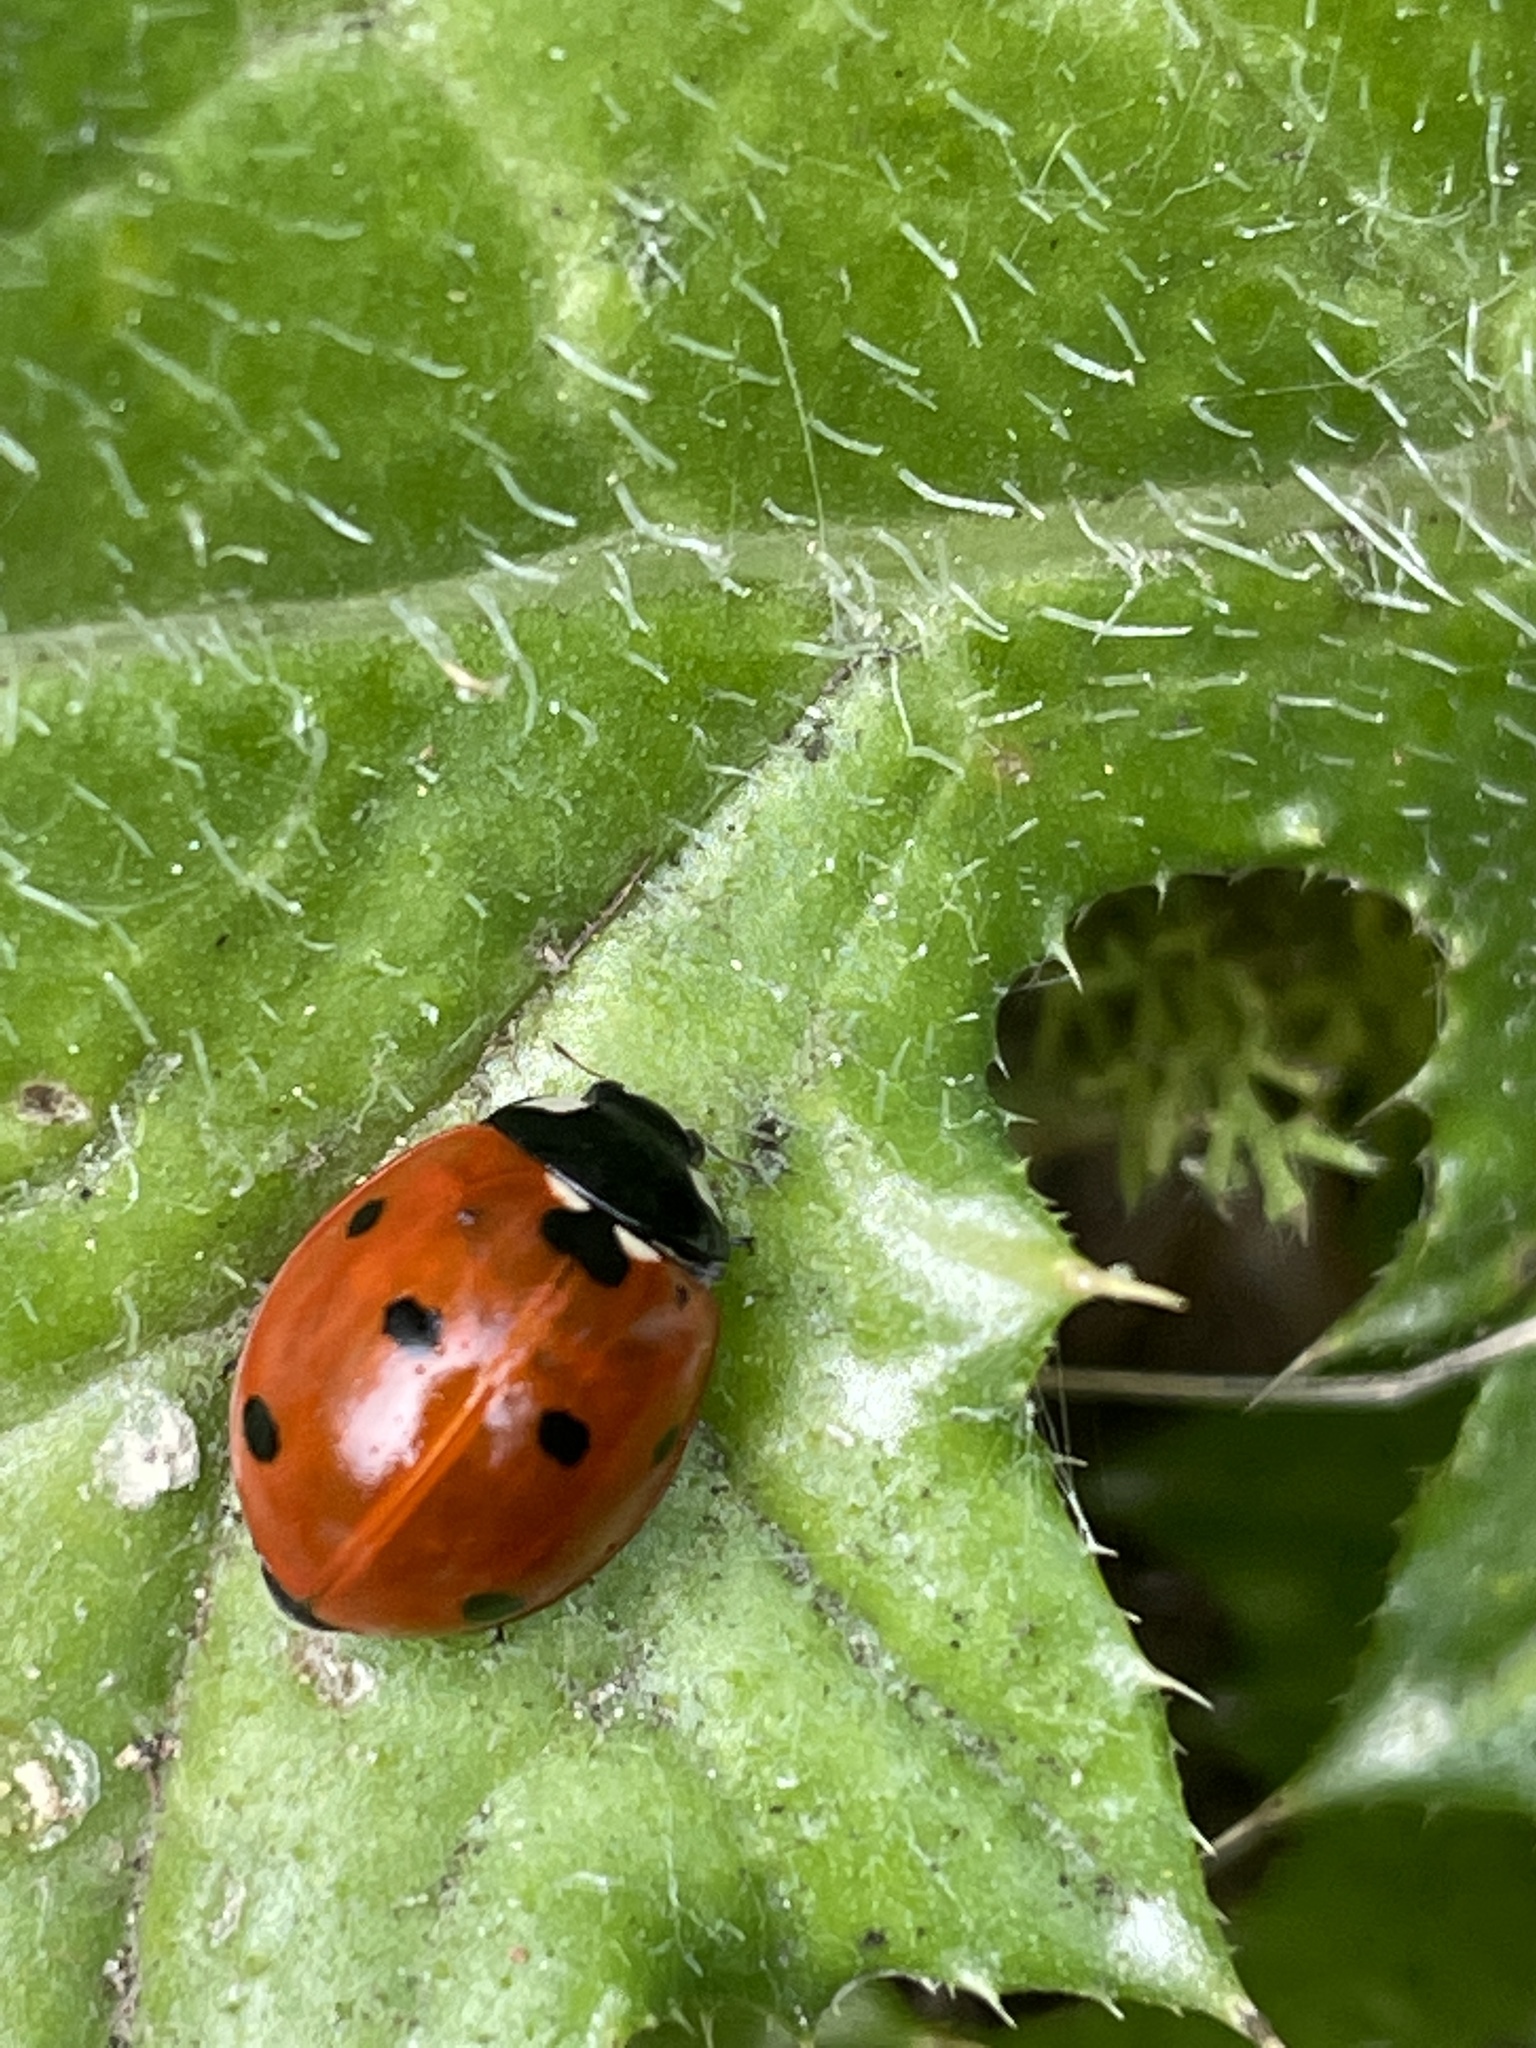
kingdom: Animalia
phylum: Arthropoda
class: Insecta
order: Coleoptera
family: Coccinellidae
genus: Coccinella
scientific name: Coccinella septempunctata
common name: Sevenspotted lady beetle
